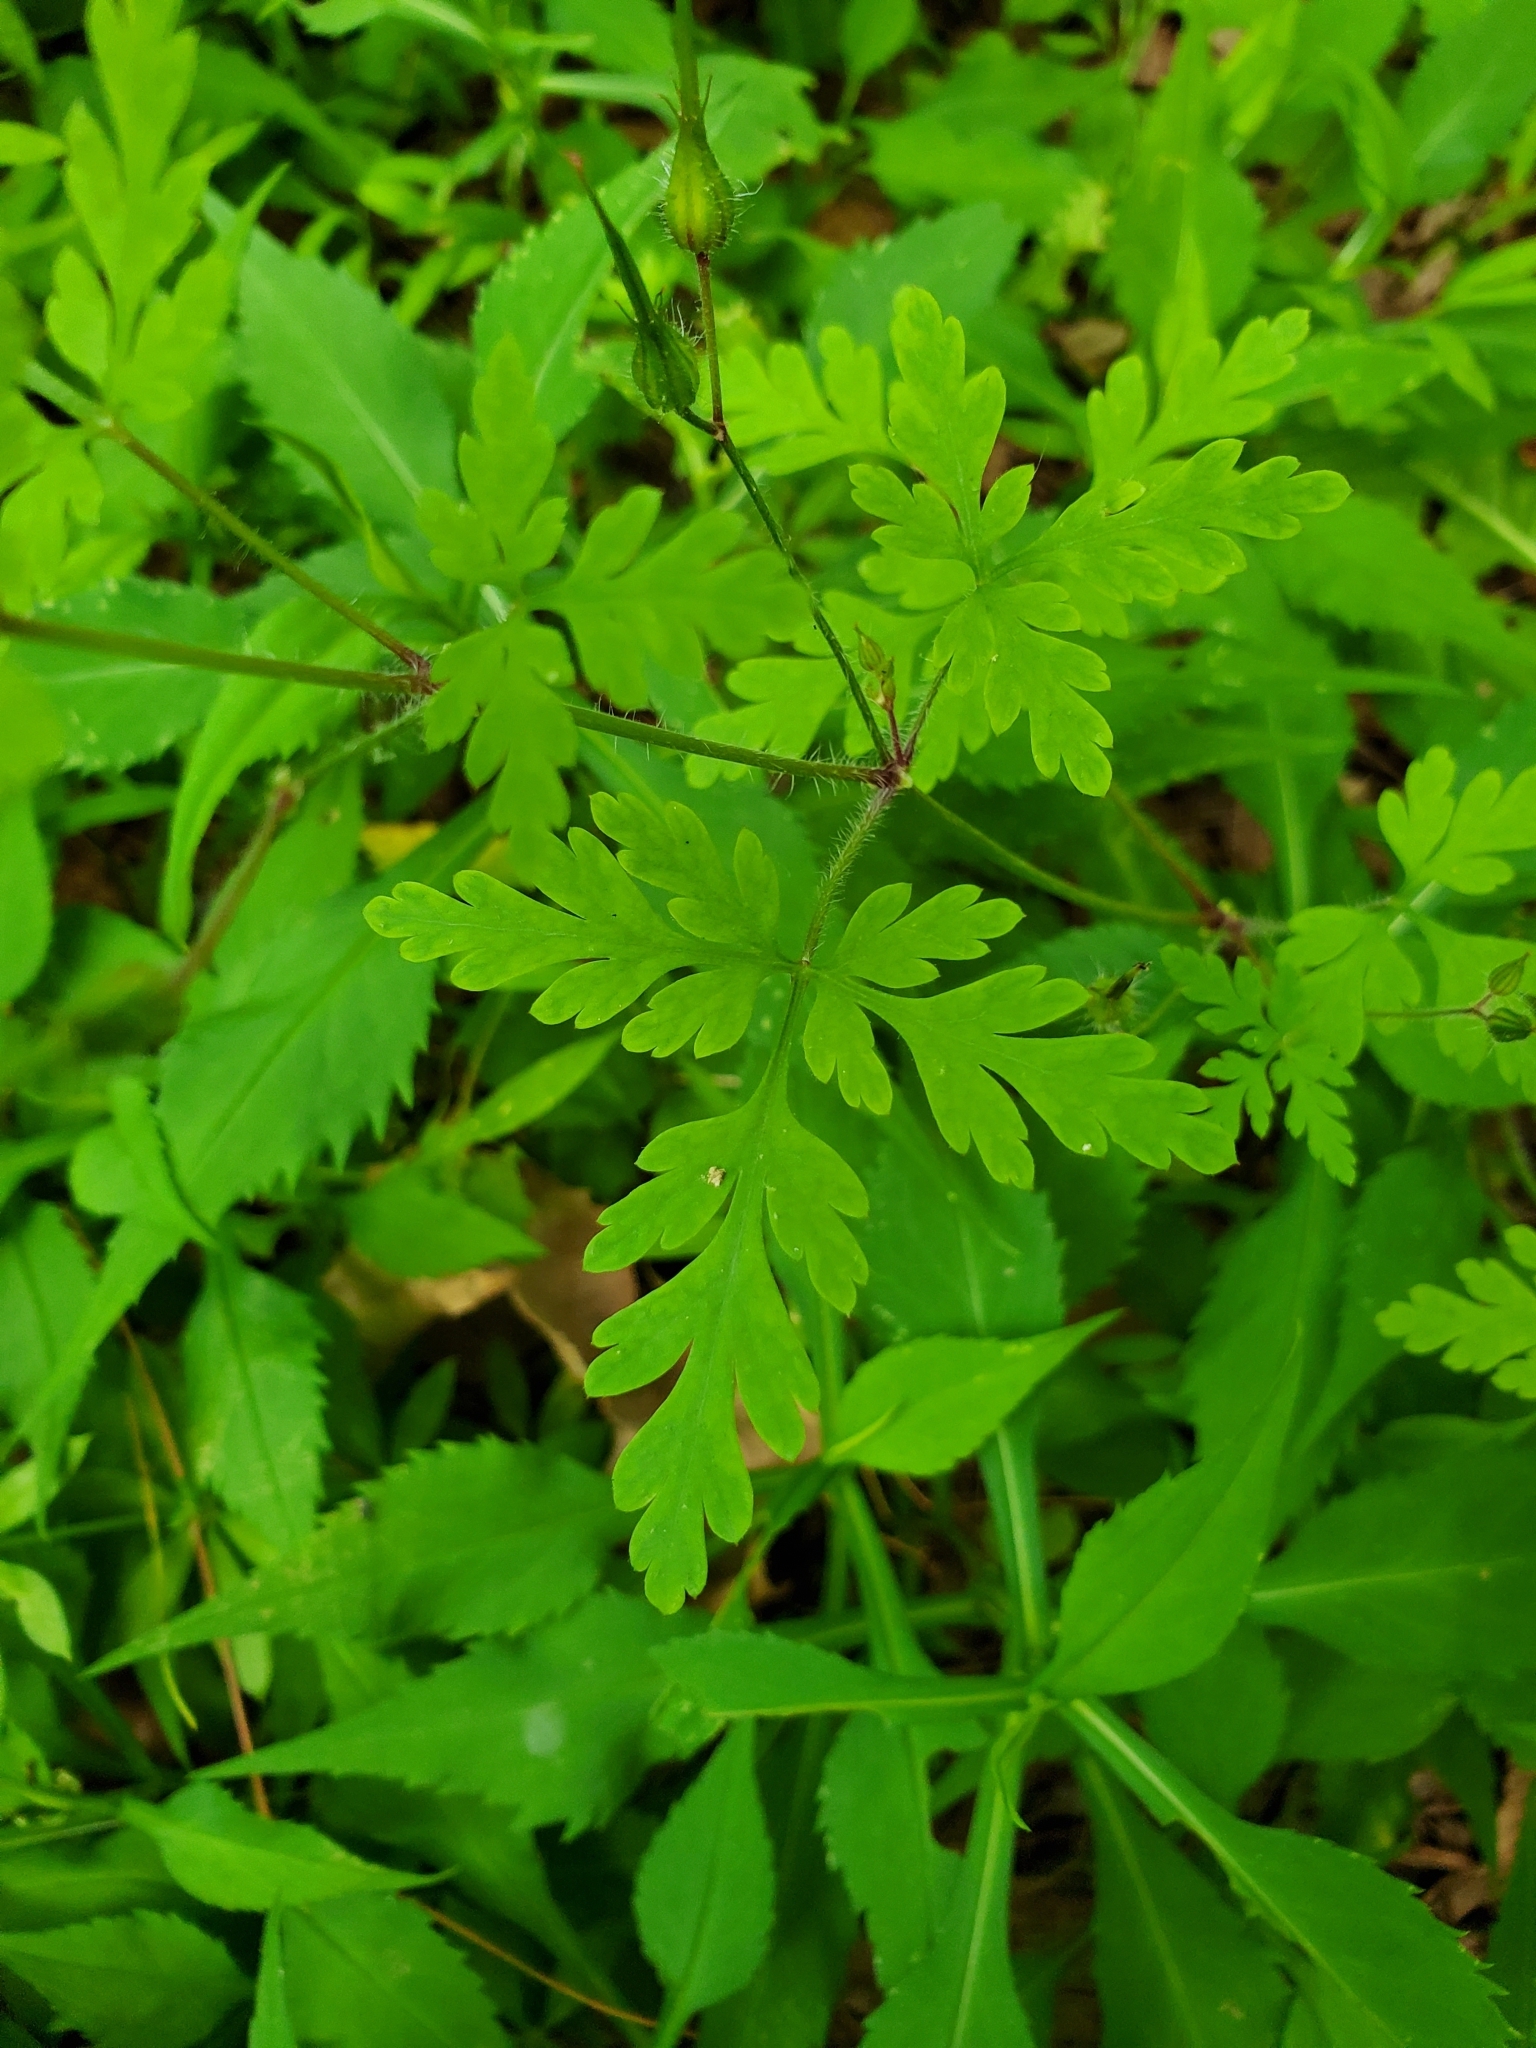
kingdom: Plantae
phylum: Tracheophyta
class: Magnoliopsida
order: Geraniales
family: Geraniaceae
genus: Geranium
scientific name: Geranium robertianum
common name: Herb-robert
